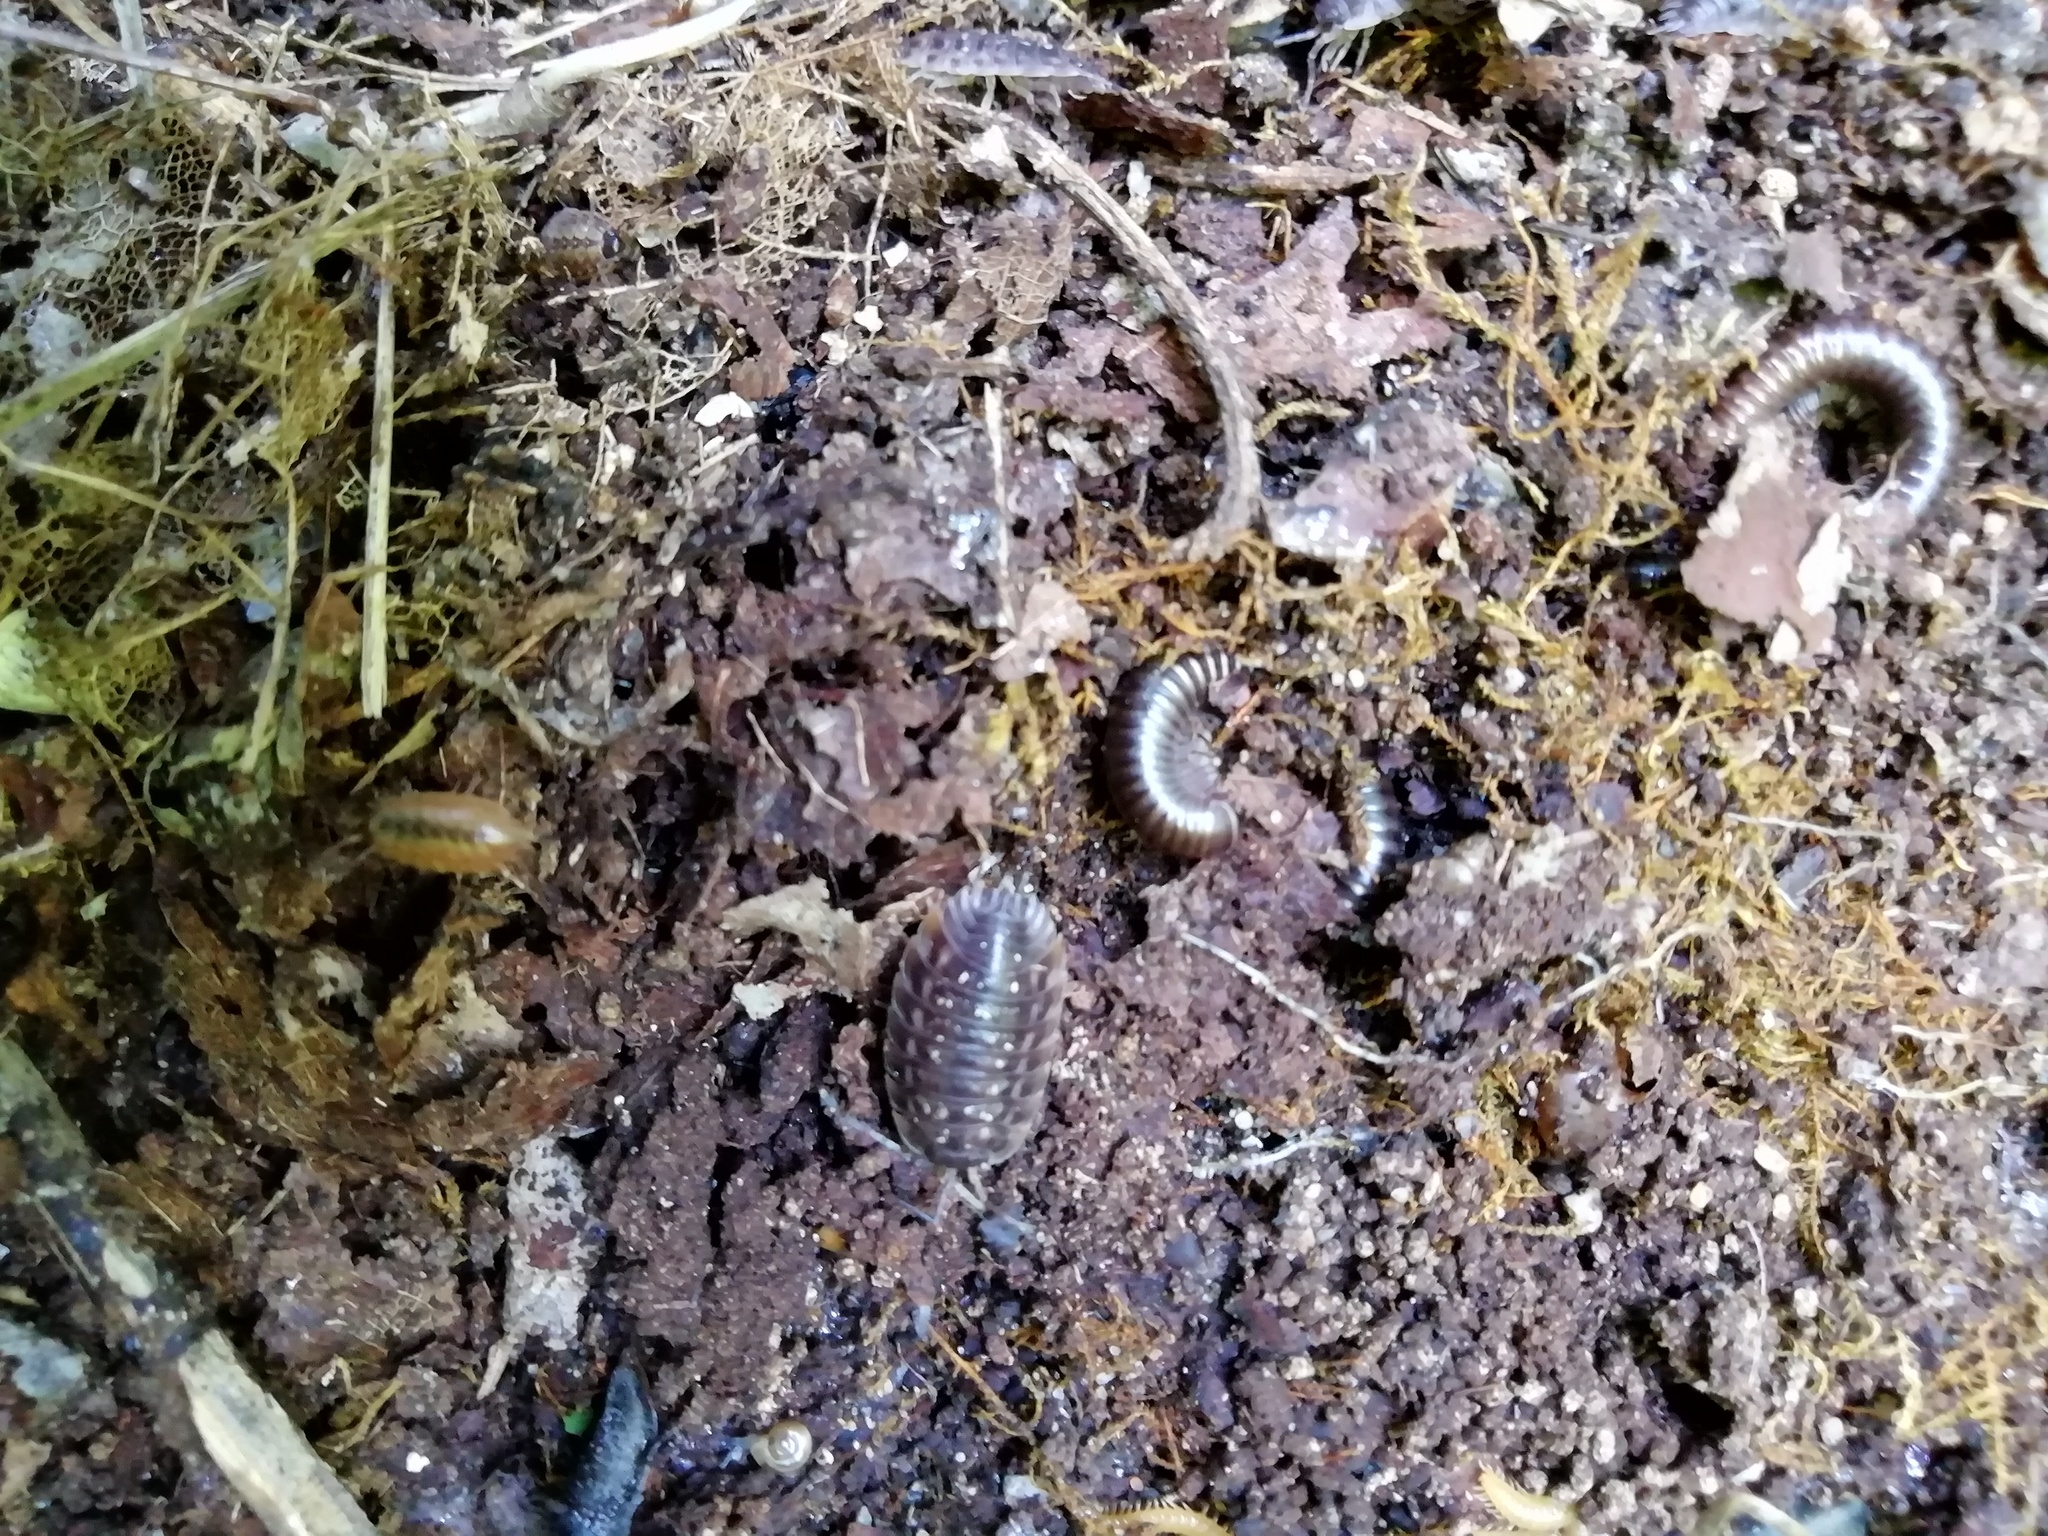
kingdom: Animalia
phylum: Arthropoda
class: Malacostraca
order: Isopoda
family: Oniscidae
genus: Oniscus
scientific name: Oniscus asellus
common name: Common shiny woodlouse
